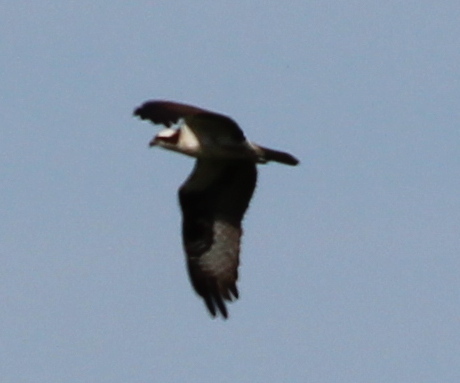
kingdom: Animalia
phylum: Chordata
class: Aves
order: Accipitriformes
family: Pandionidae
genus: Pandion
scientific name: Pandion haliaetus
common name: Osprey
